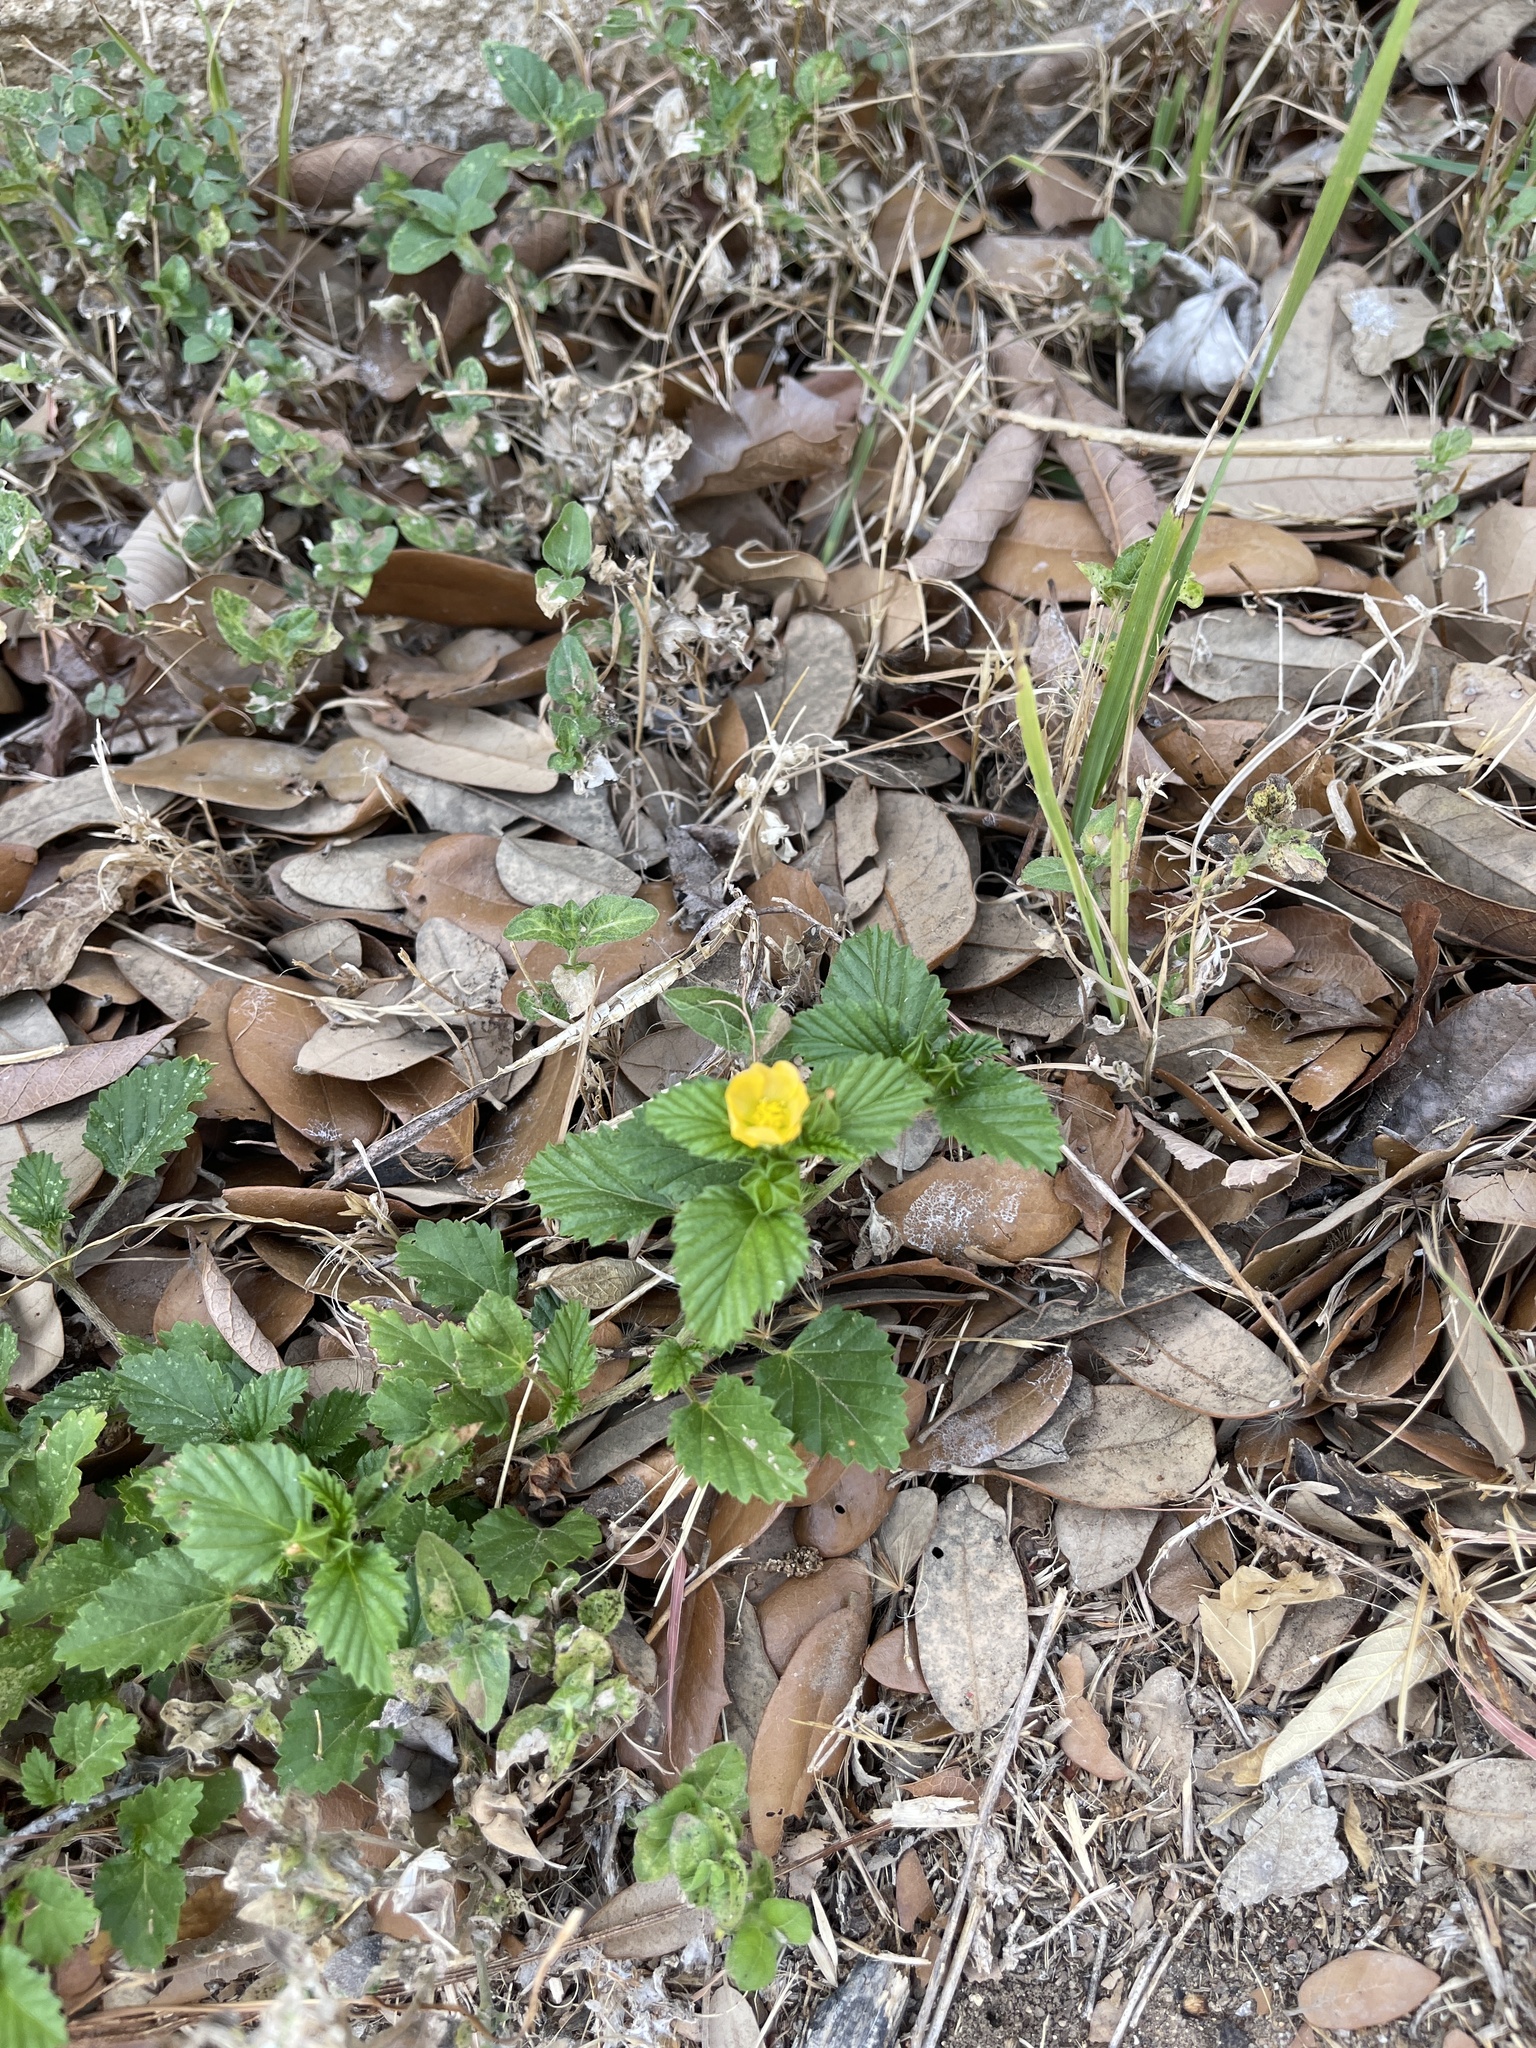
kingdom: Plantae
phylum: Tracheophyta
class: Magnoliopsida
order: Malvales
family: Malvaceae
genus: Malvastrum
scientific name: Malvastrum coromandelianum
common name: Threelobe false mallow
